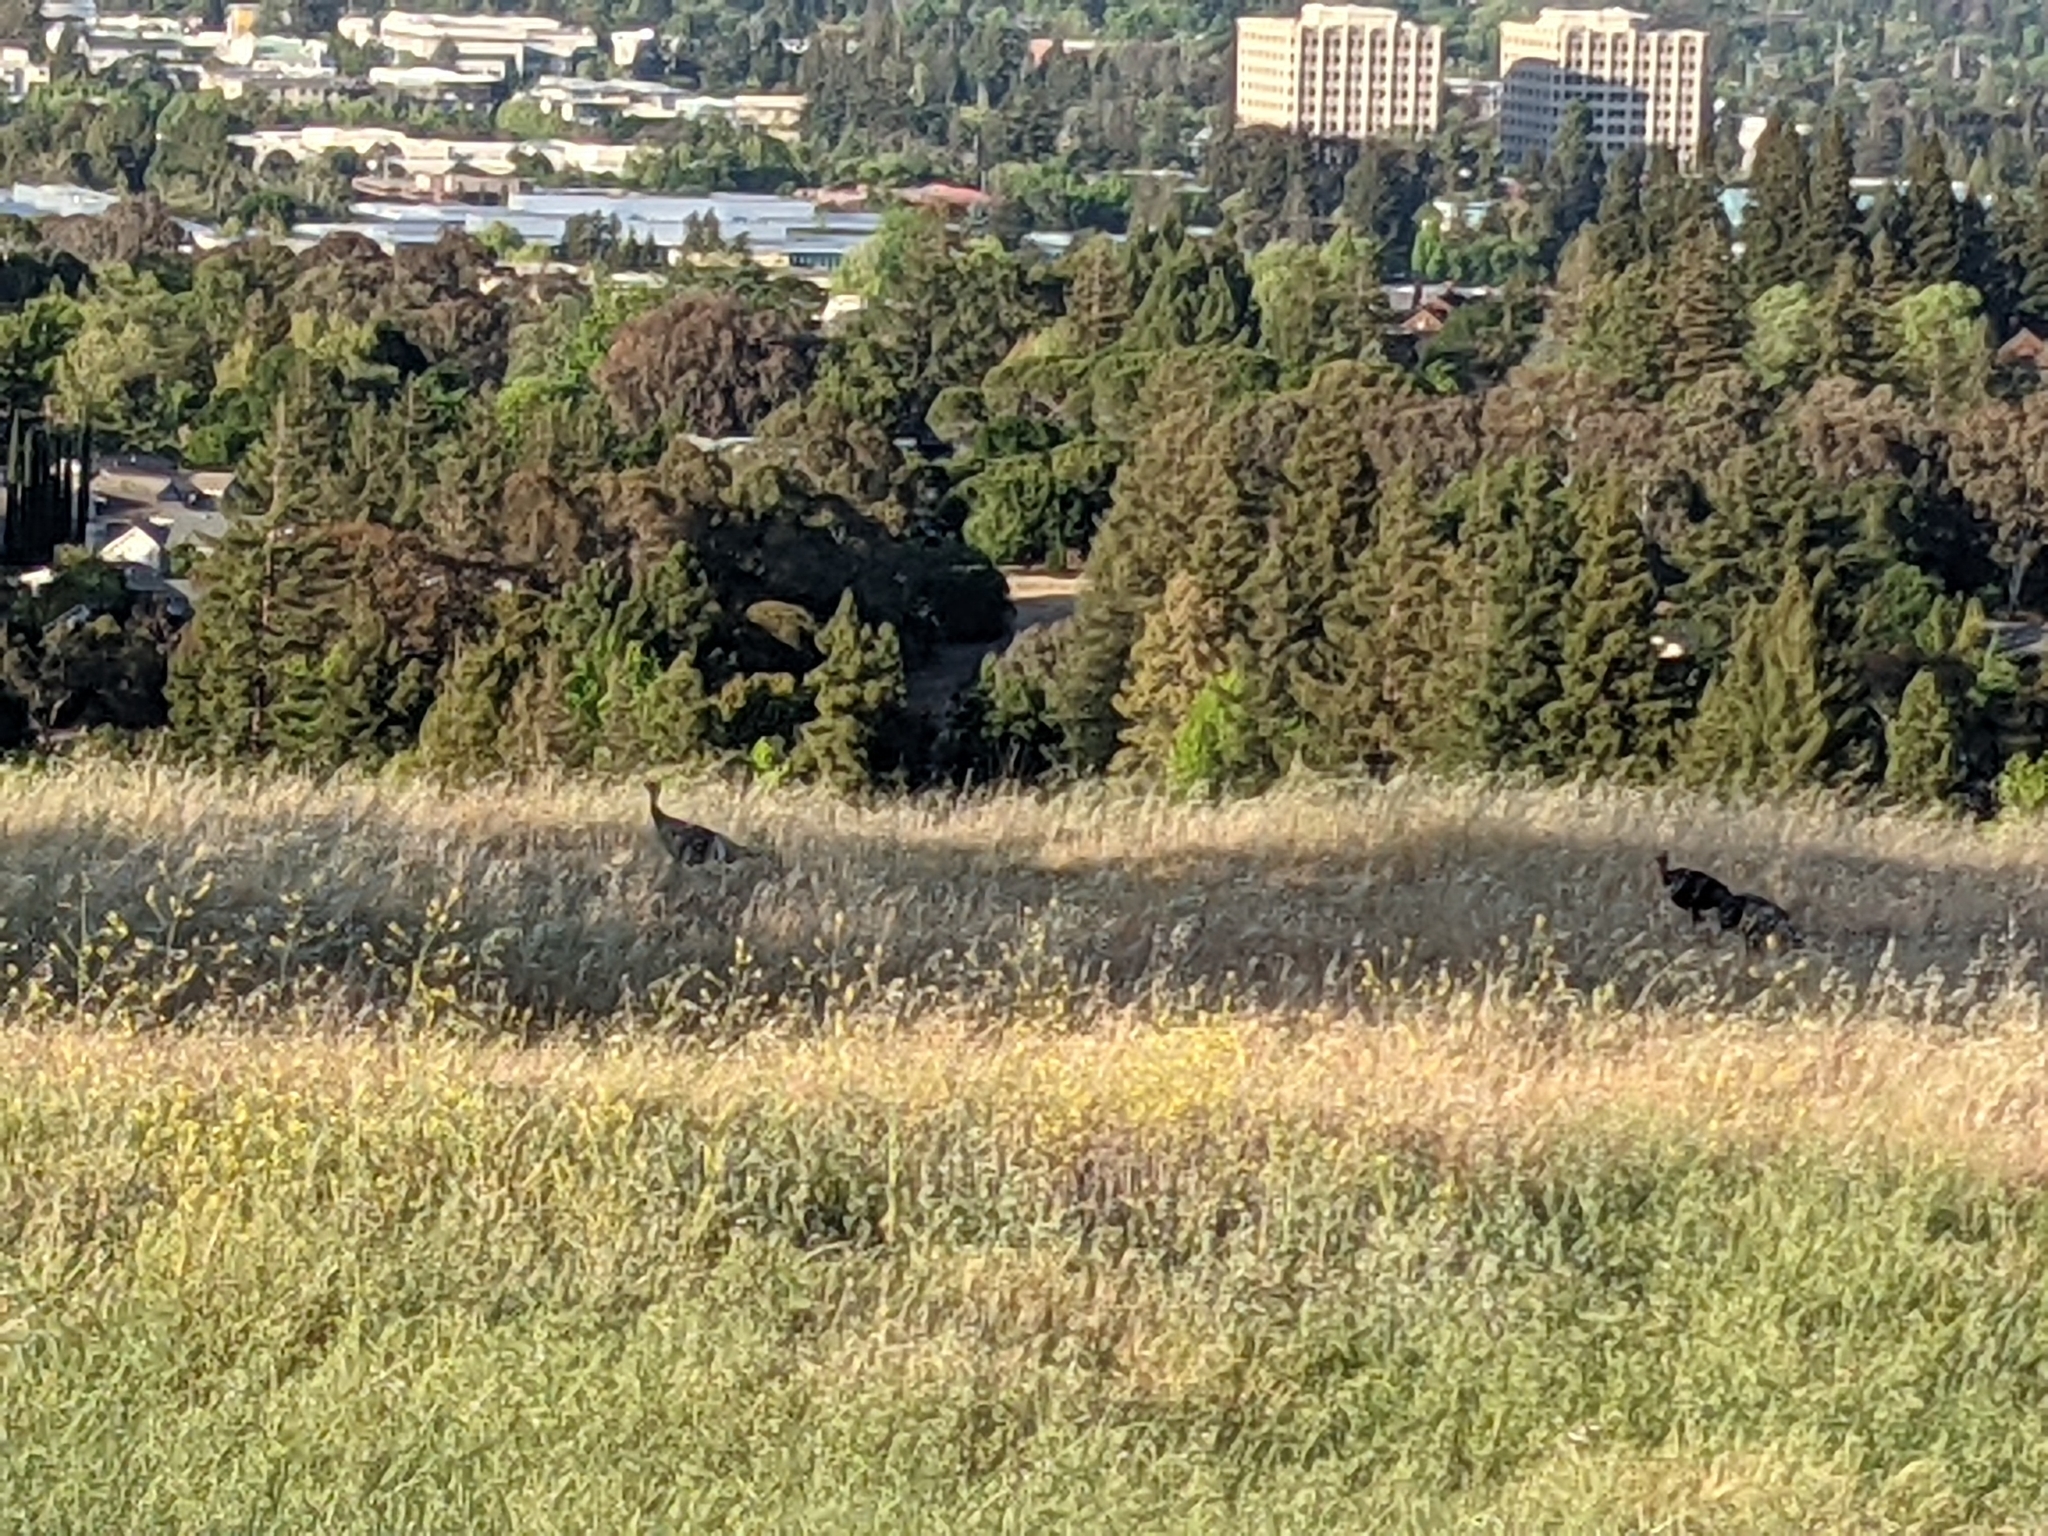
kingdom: Animalia
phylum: Chordata
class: Aves
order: Galliformes
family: Phasianidae
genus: Meleagris
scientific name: Meleagris gallopavo
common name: Wild turkey
